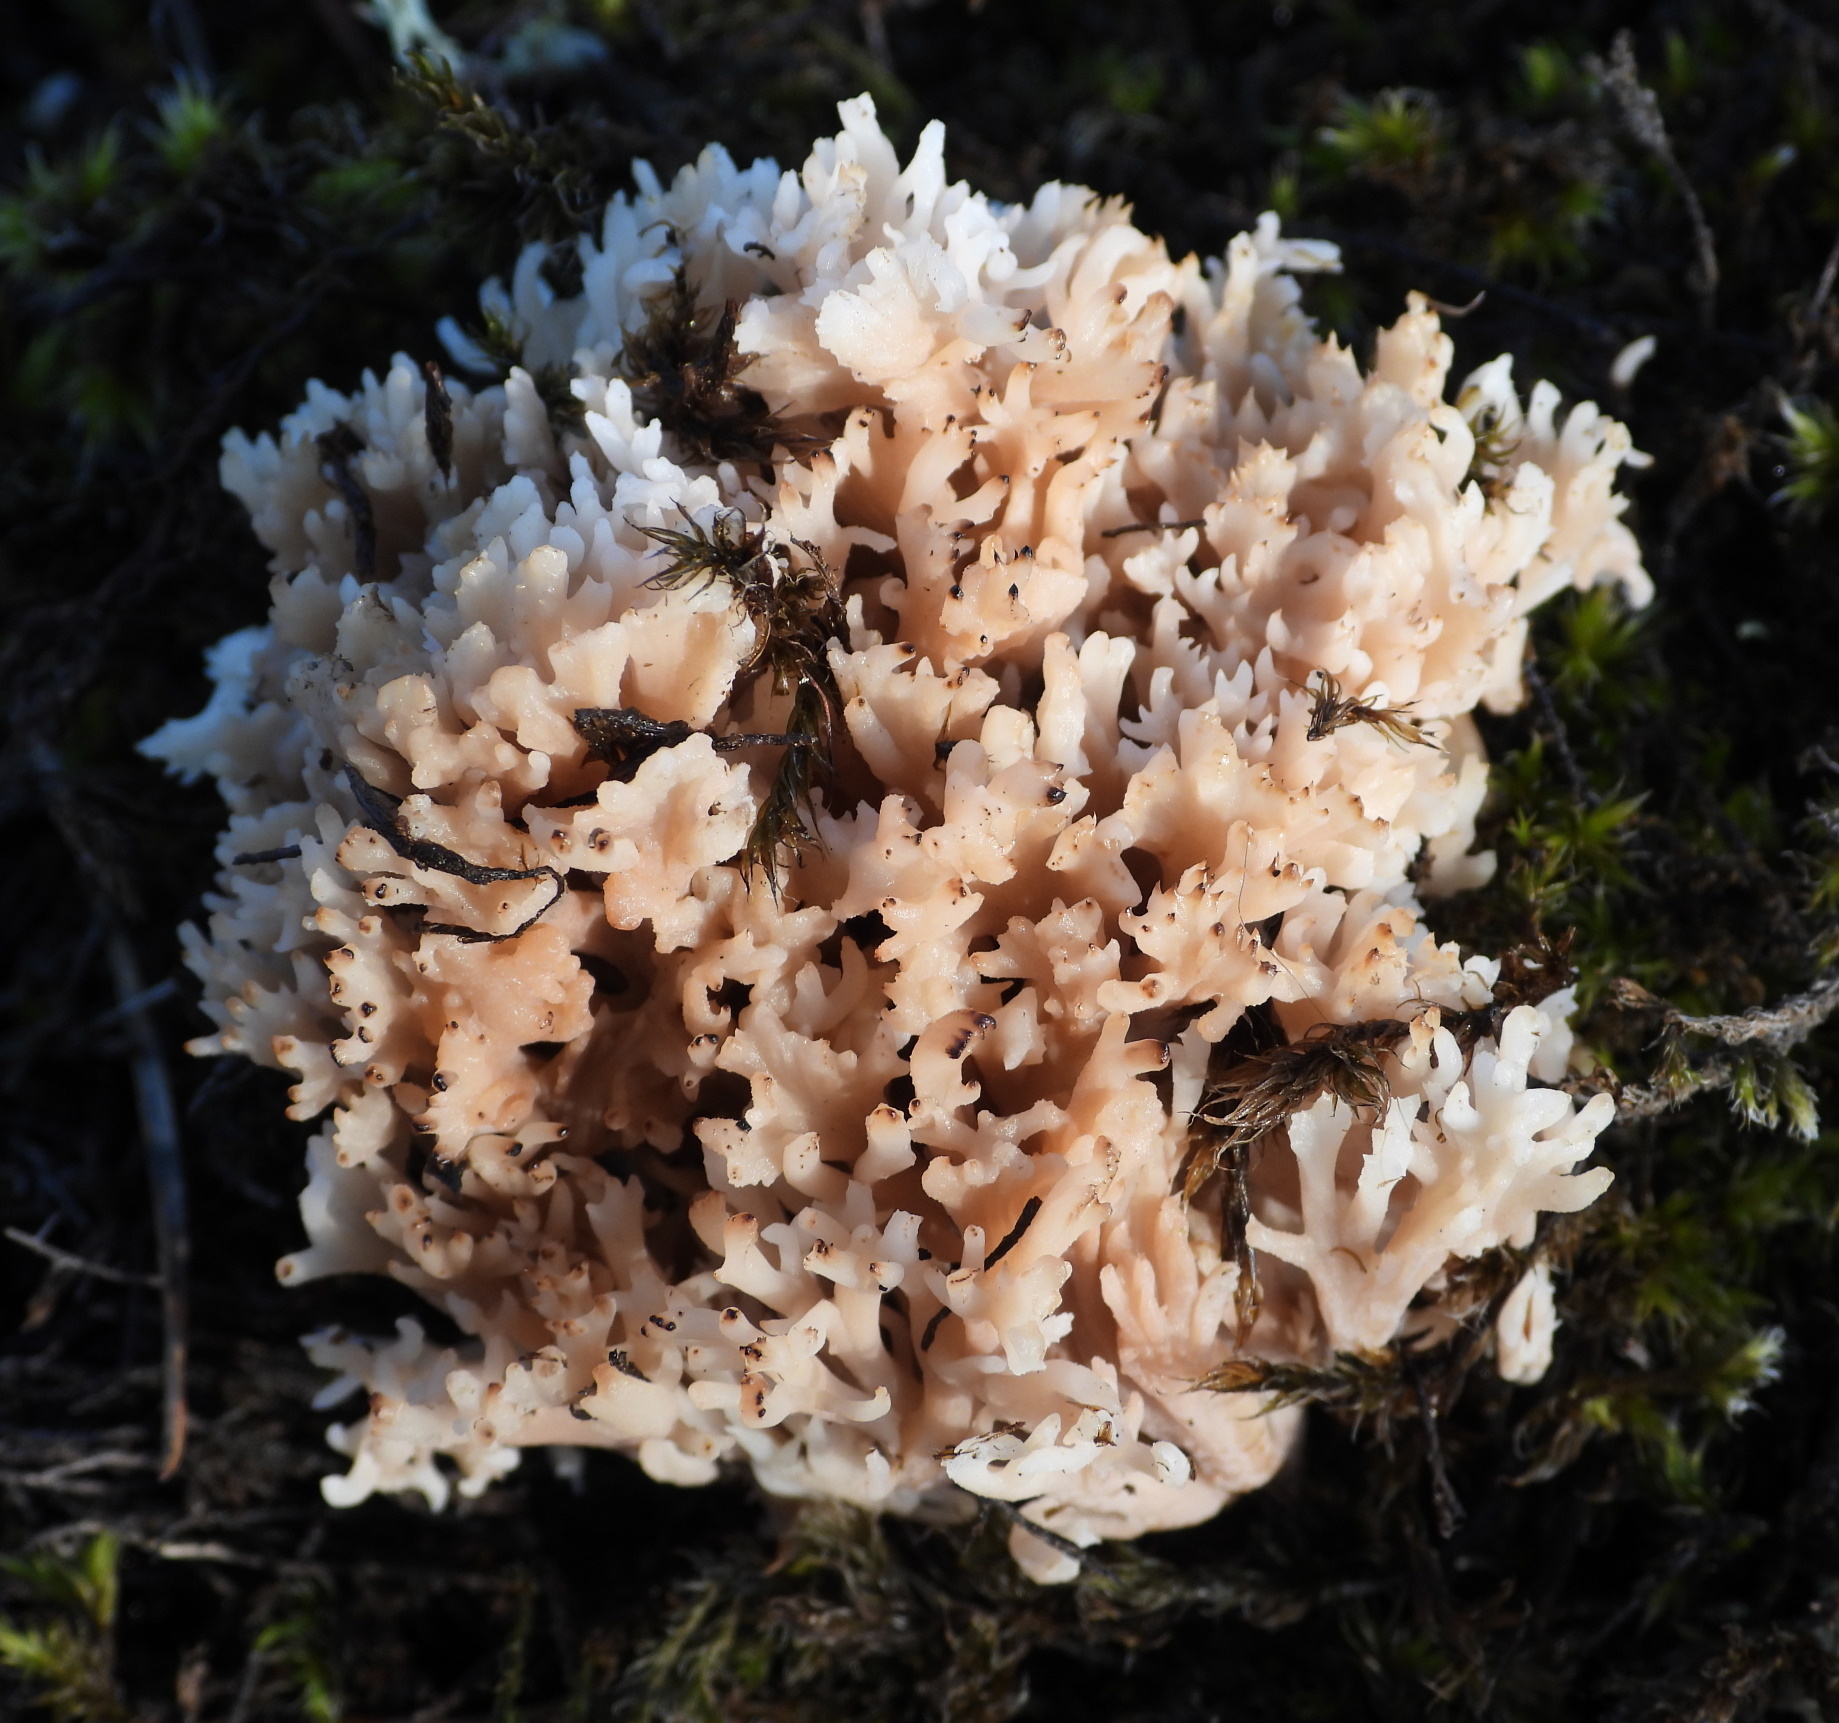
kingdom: Fungi
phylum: Basidiomycota
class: Agaricomycetes
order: Cantharellales
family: Hydnaceae
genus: Clavulina
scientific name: Clavulina coralloides
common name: Crested coral
